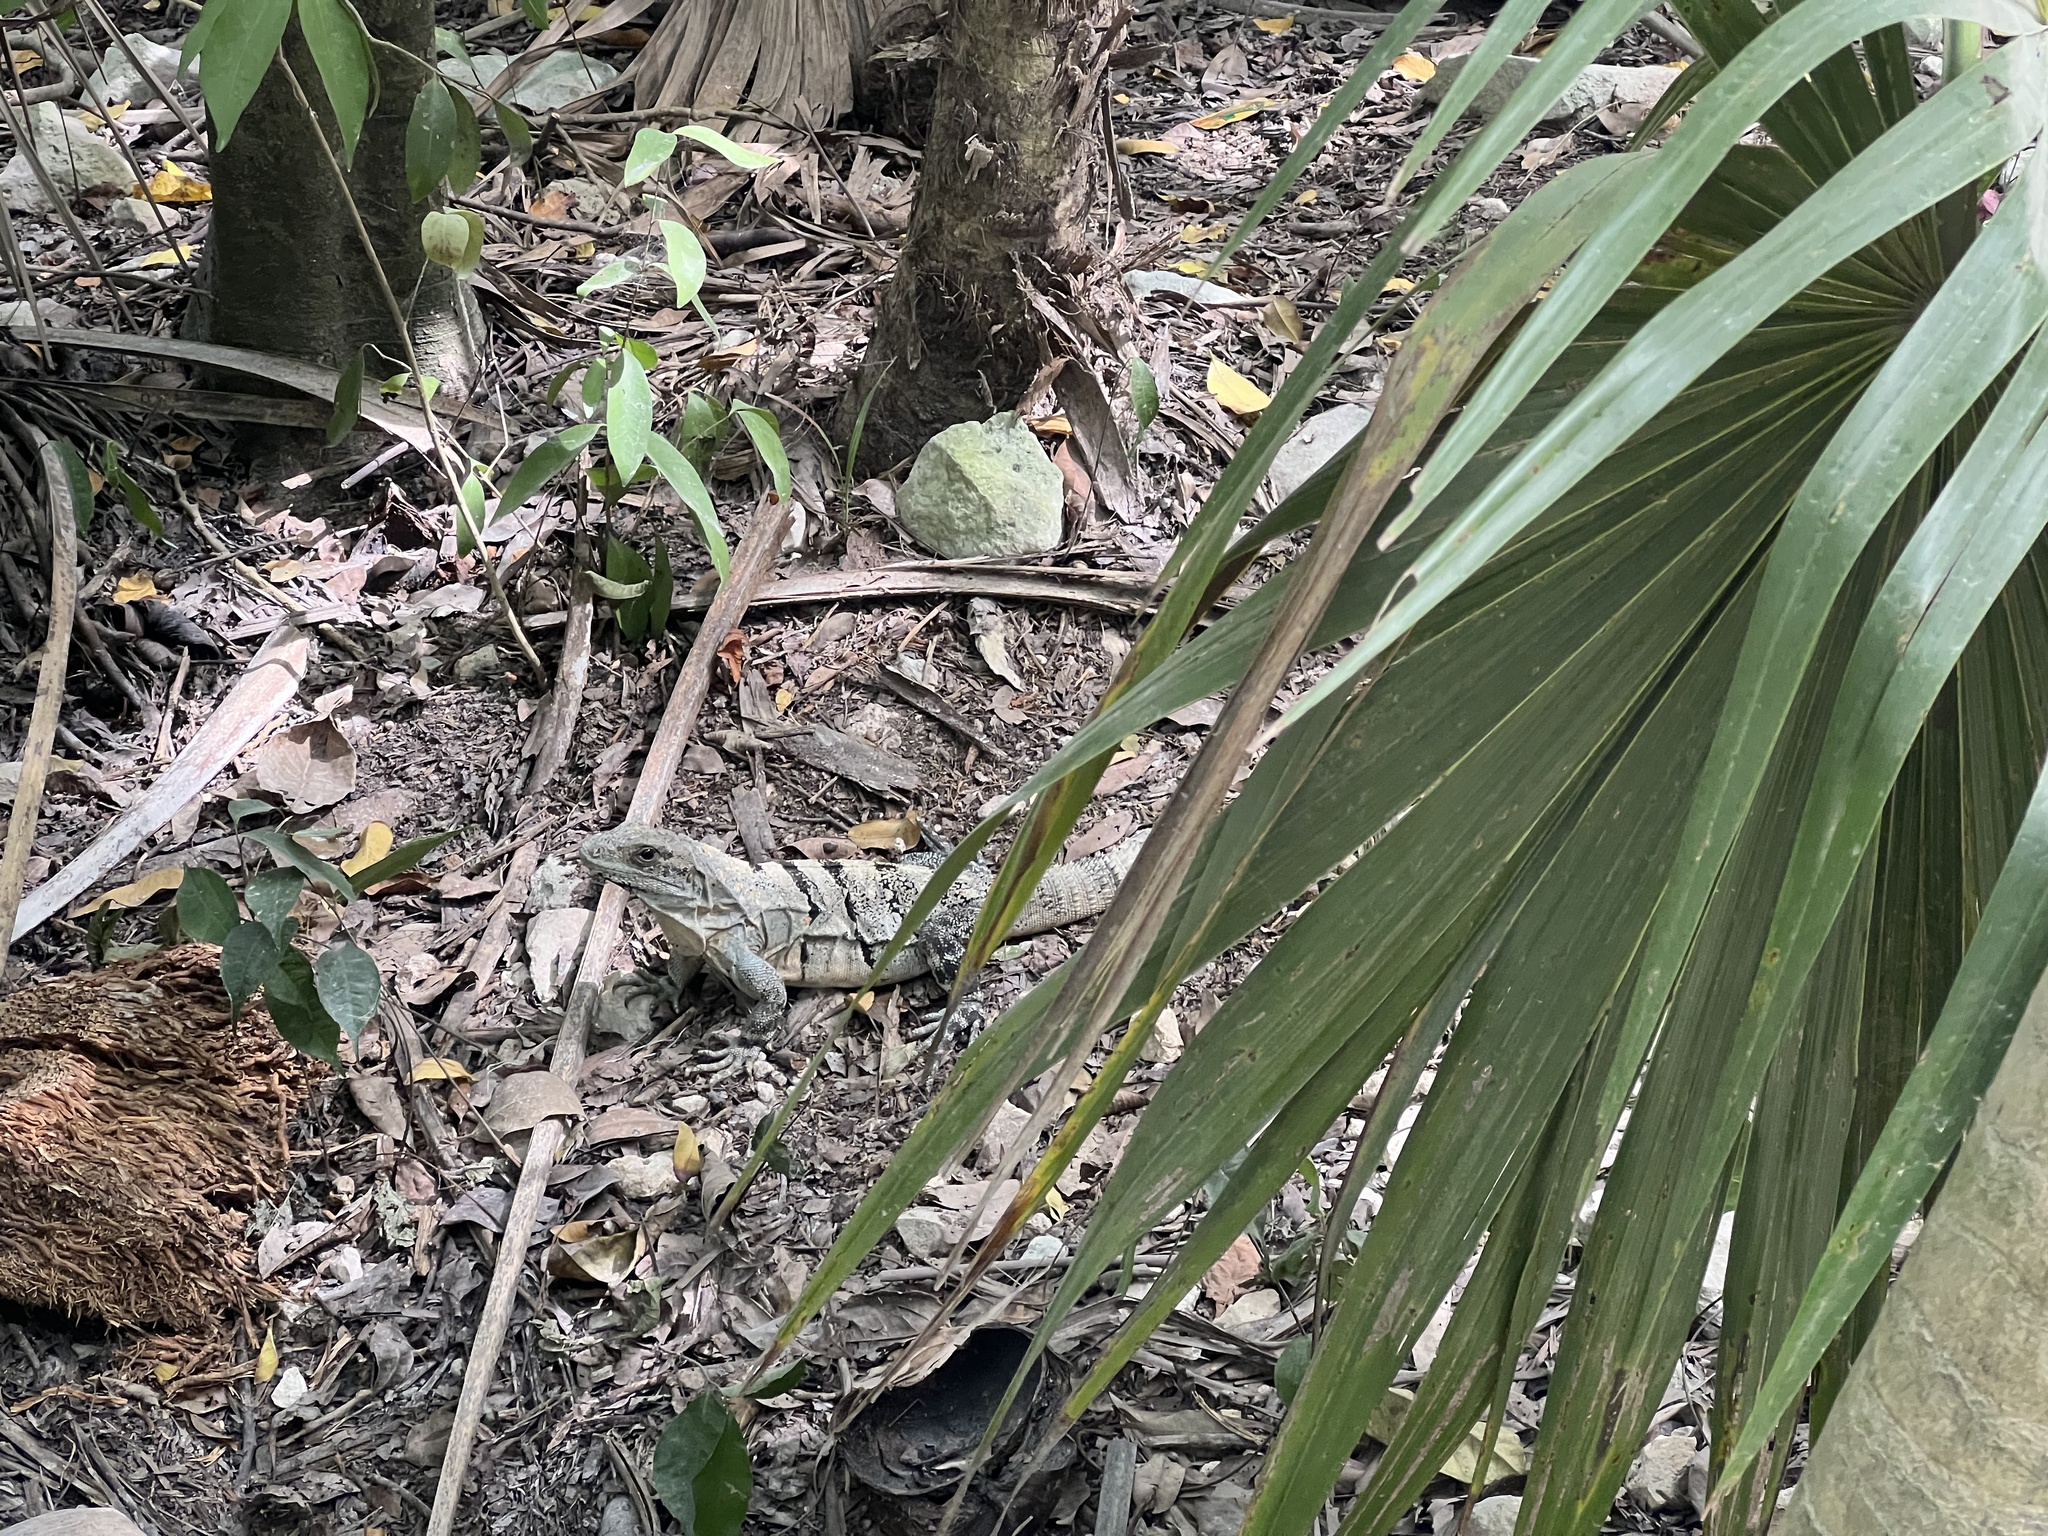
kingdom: Animalia
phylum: Chordata
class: Squamata
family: Iguanidae
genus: Ctenosaura
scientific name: Ctenosaura similis
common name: Black spiny-tailed iguana
